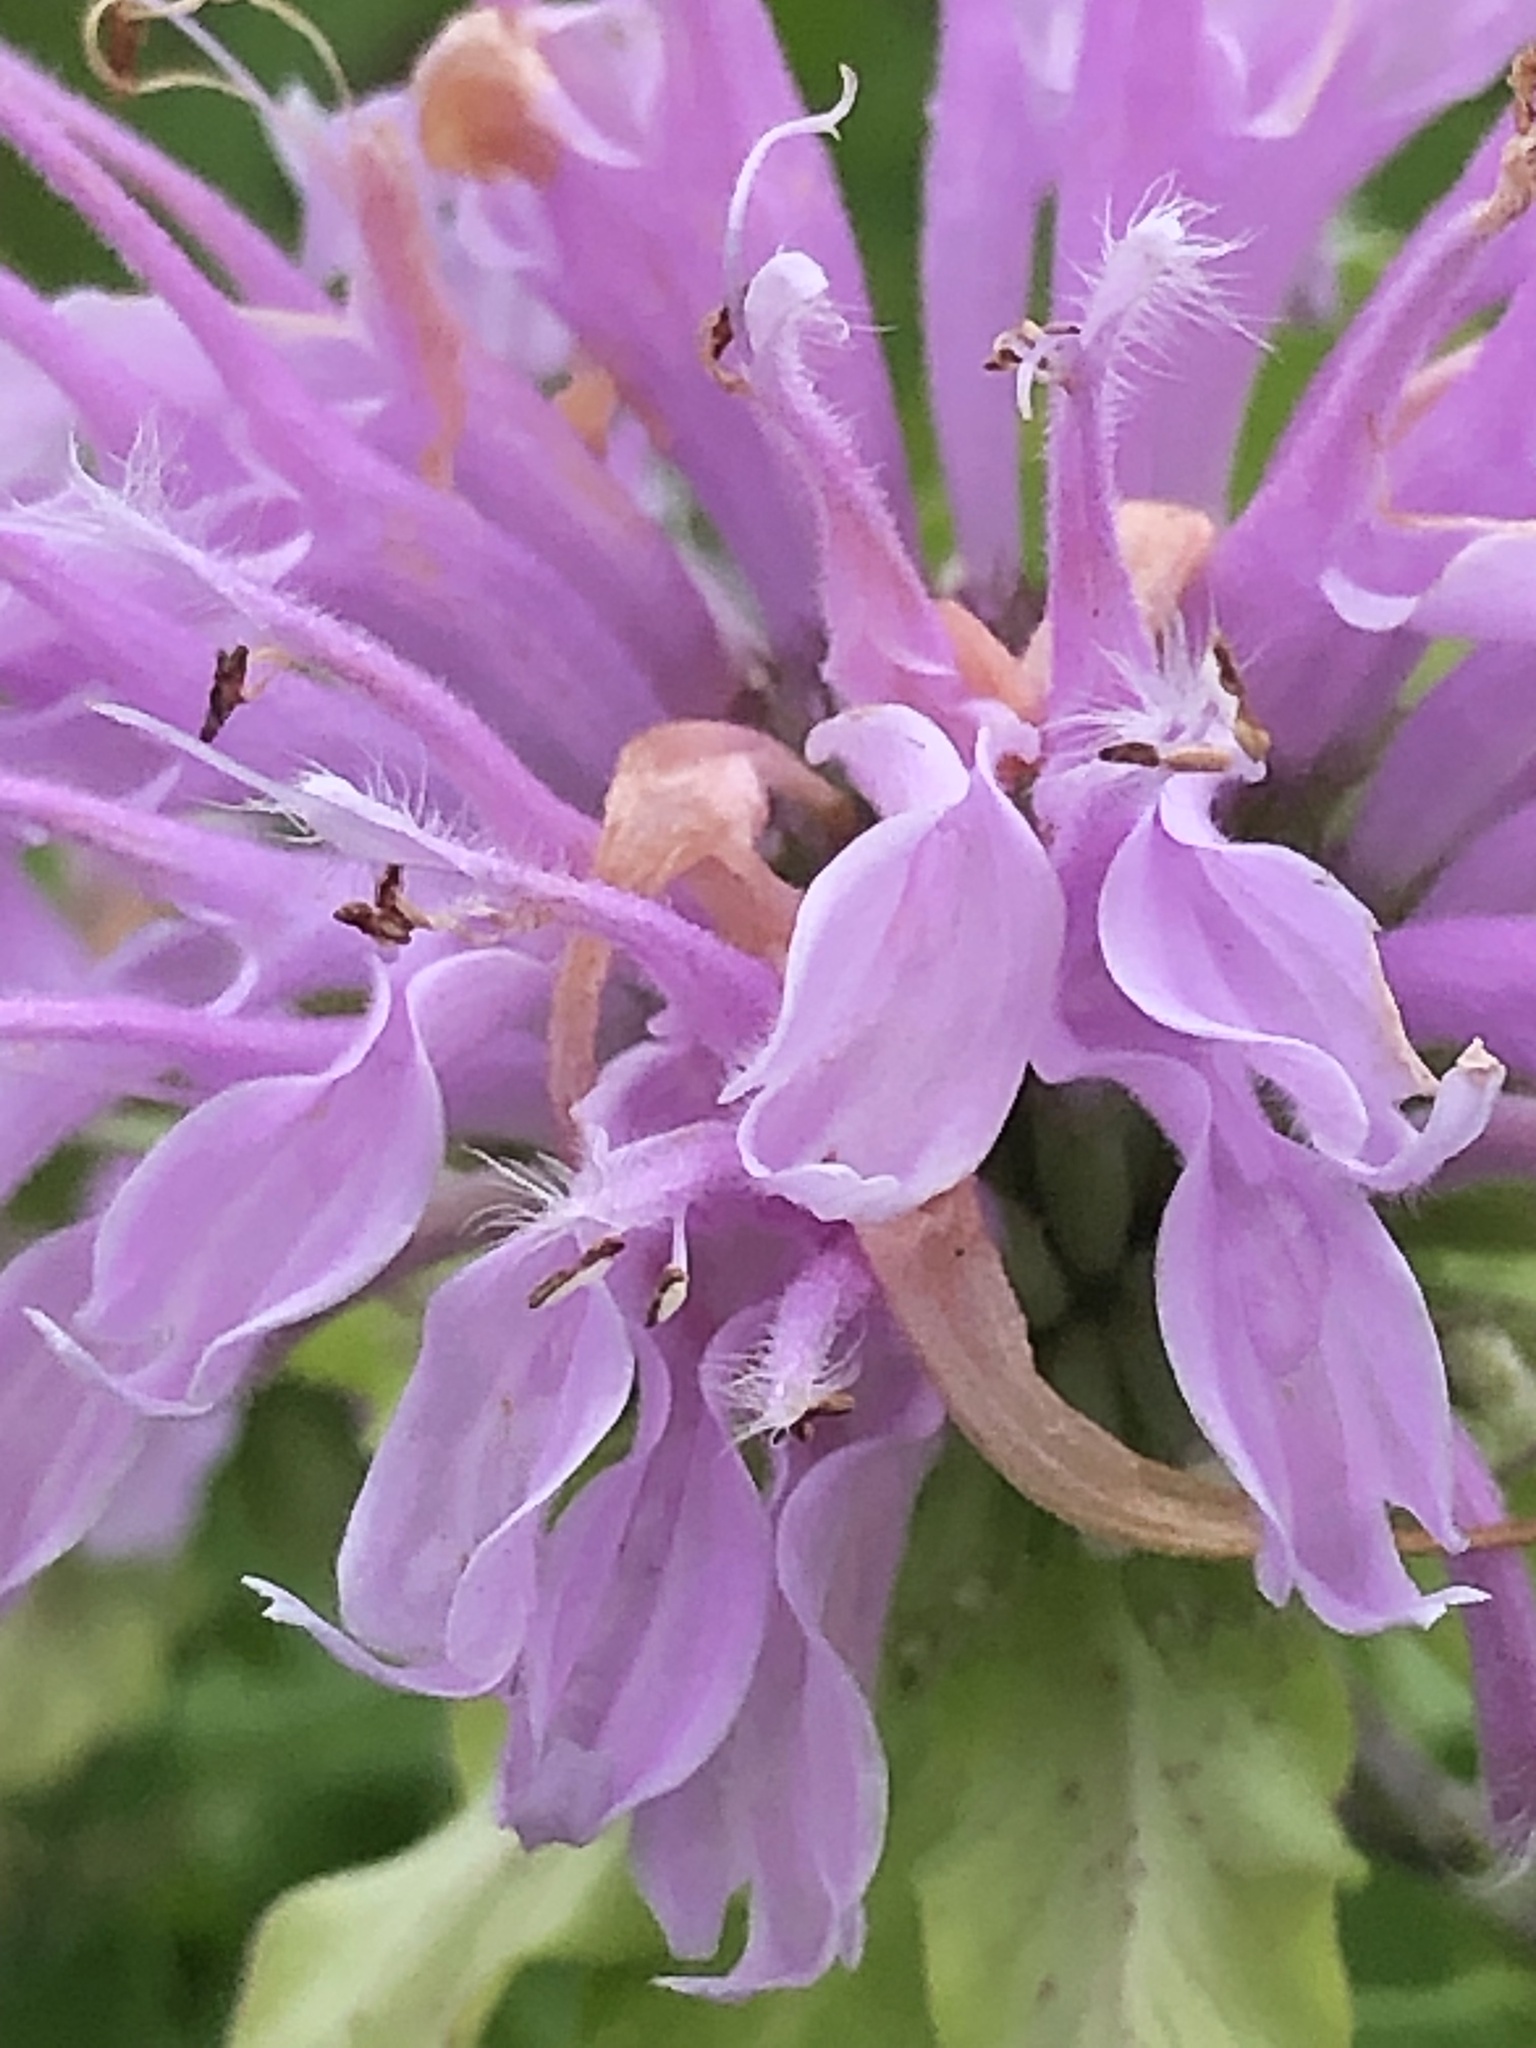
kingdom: Plantae
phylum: Tracheophyta
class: Magnoliopsida
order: Lamiales
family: Lamiaceae
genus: Monarda
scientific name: Monarda fistulosa
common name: Purple beebalm
